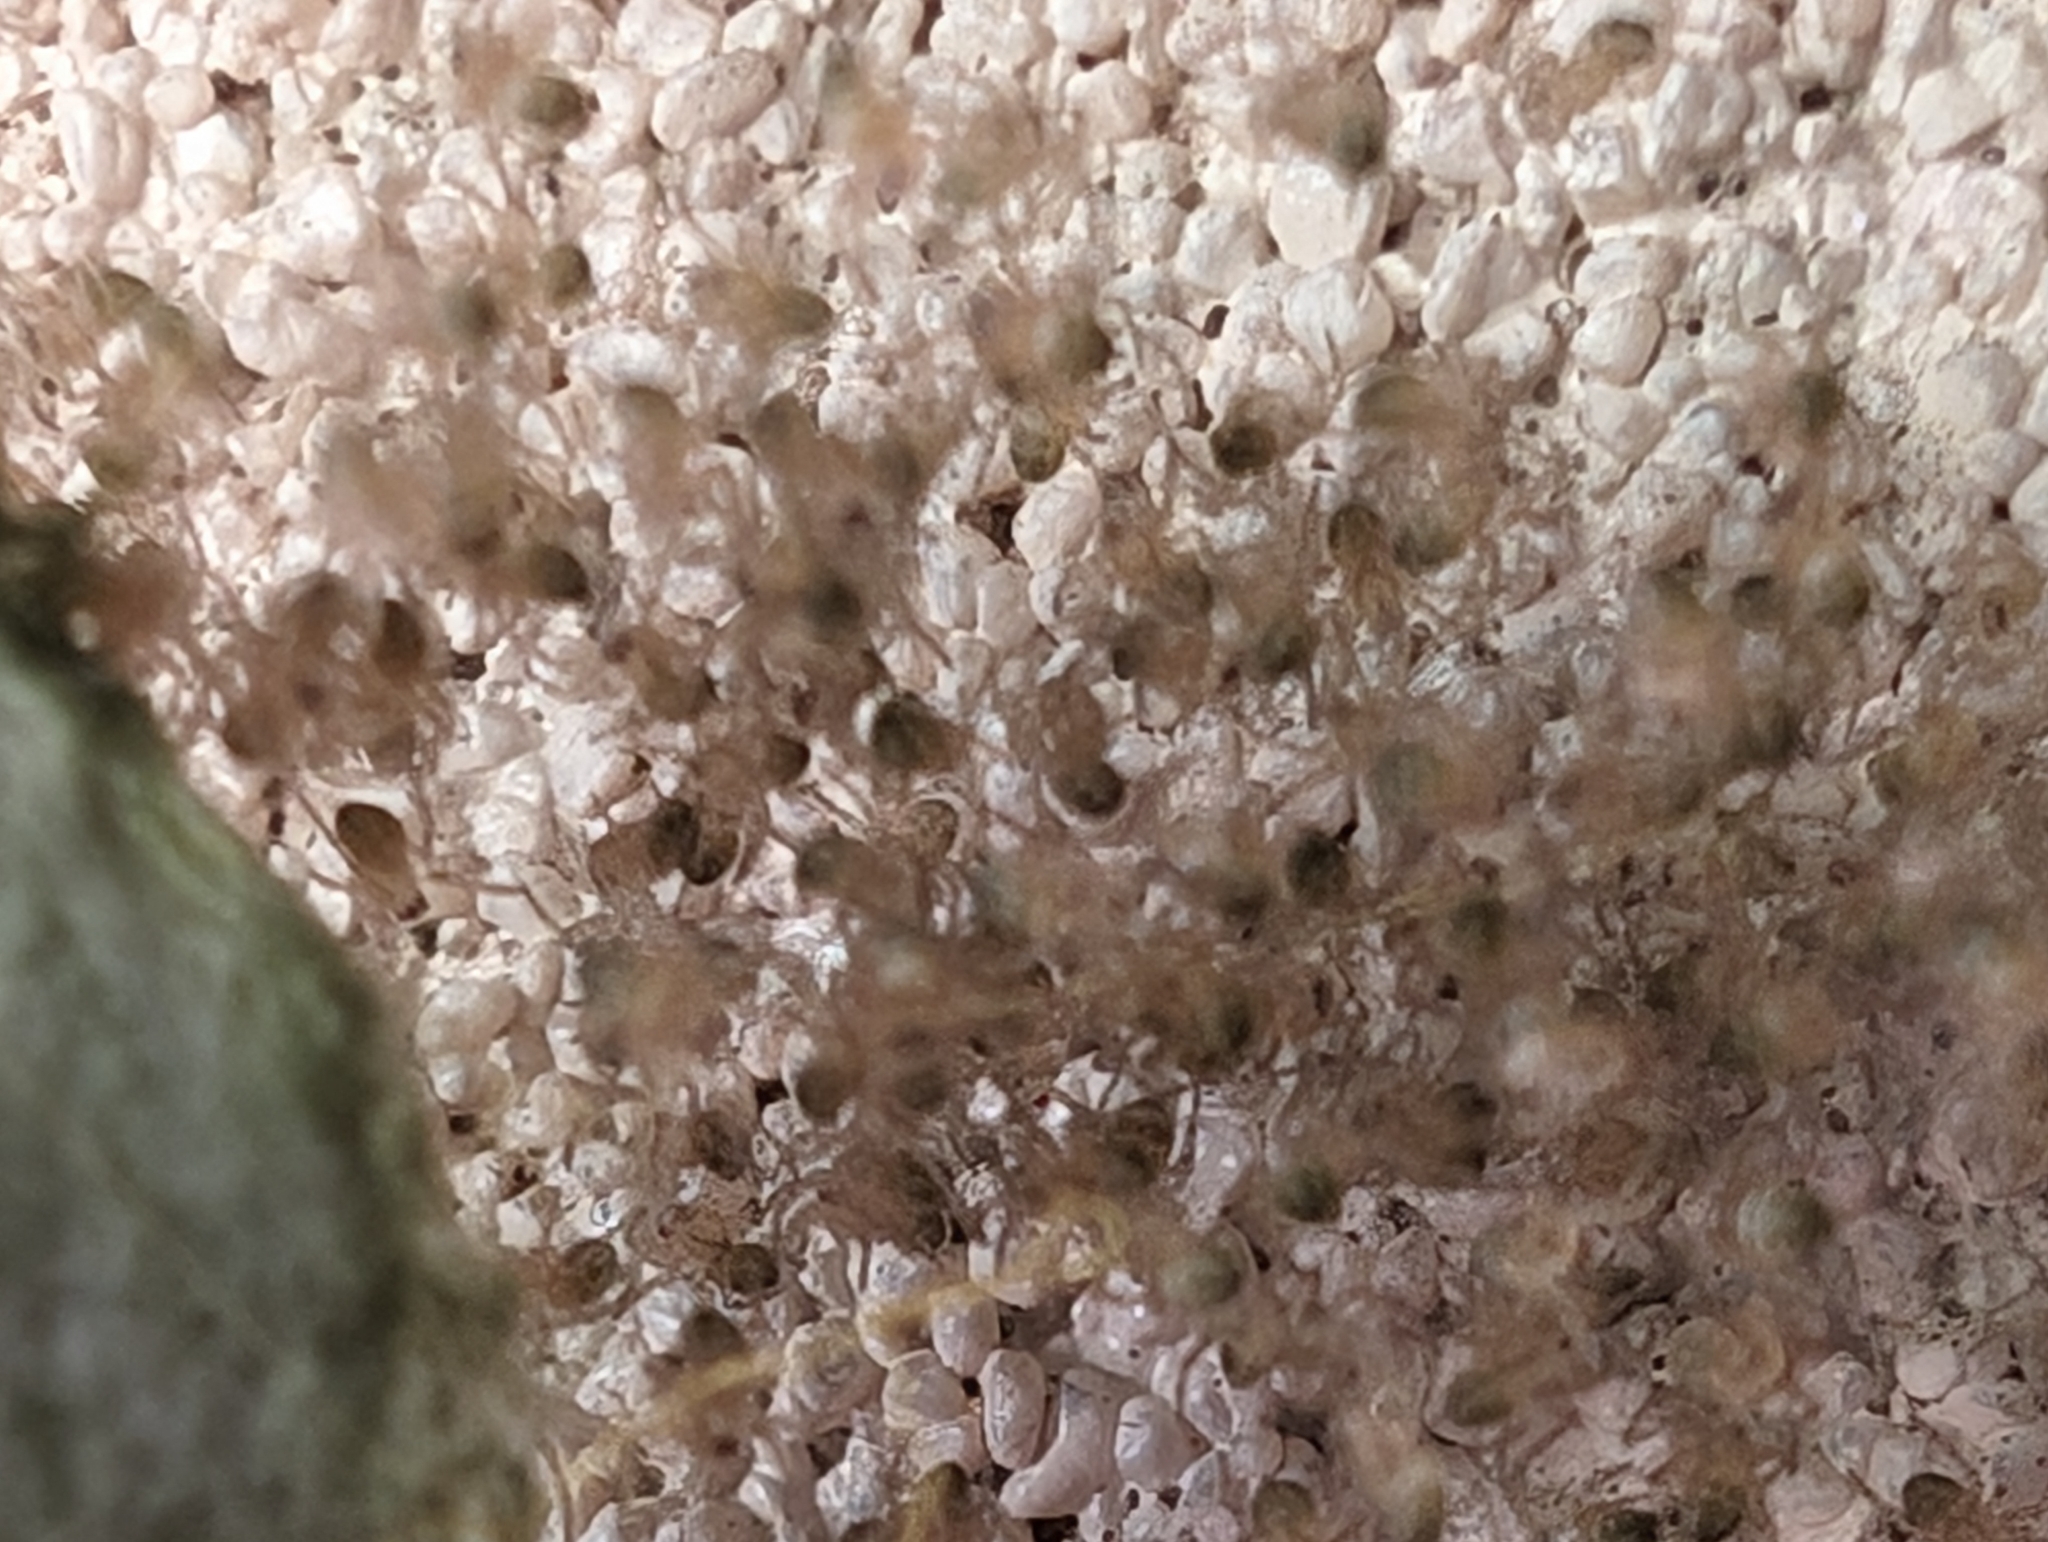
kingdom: Animalia
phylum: Arthropoda
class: Arachnida
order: Araneae
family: Araneidae
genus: Argiope
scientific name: Argiope keyserlingi
